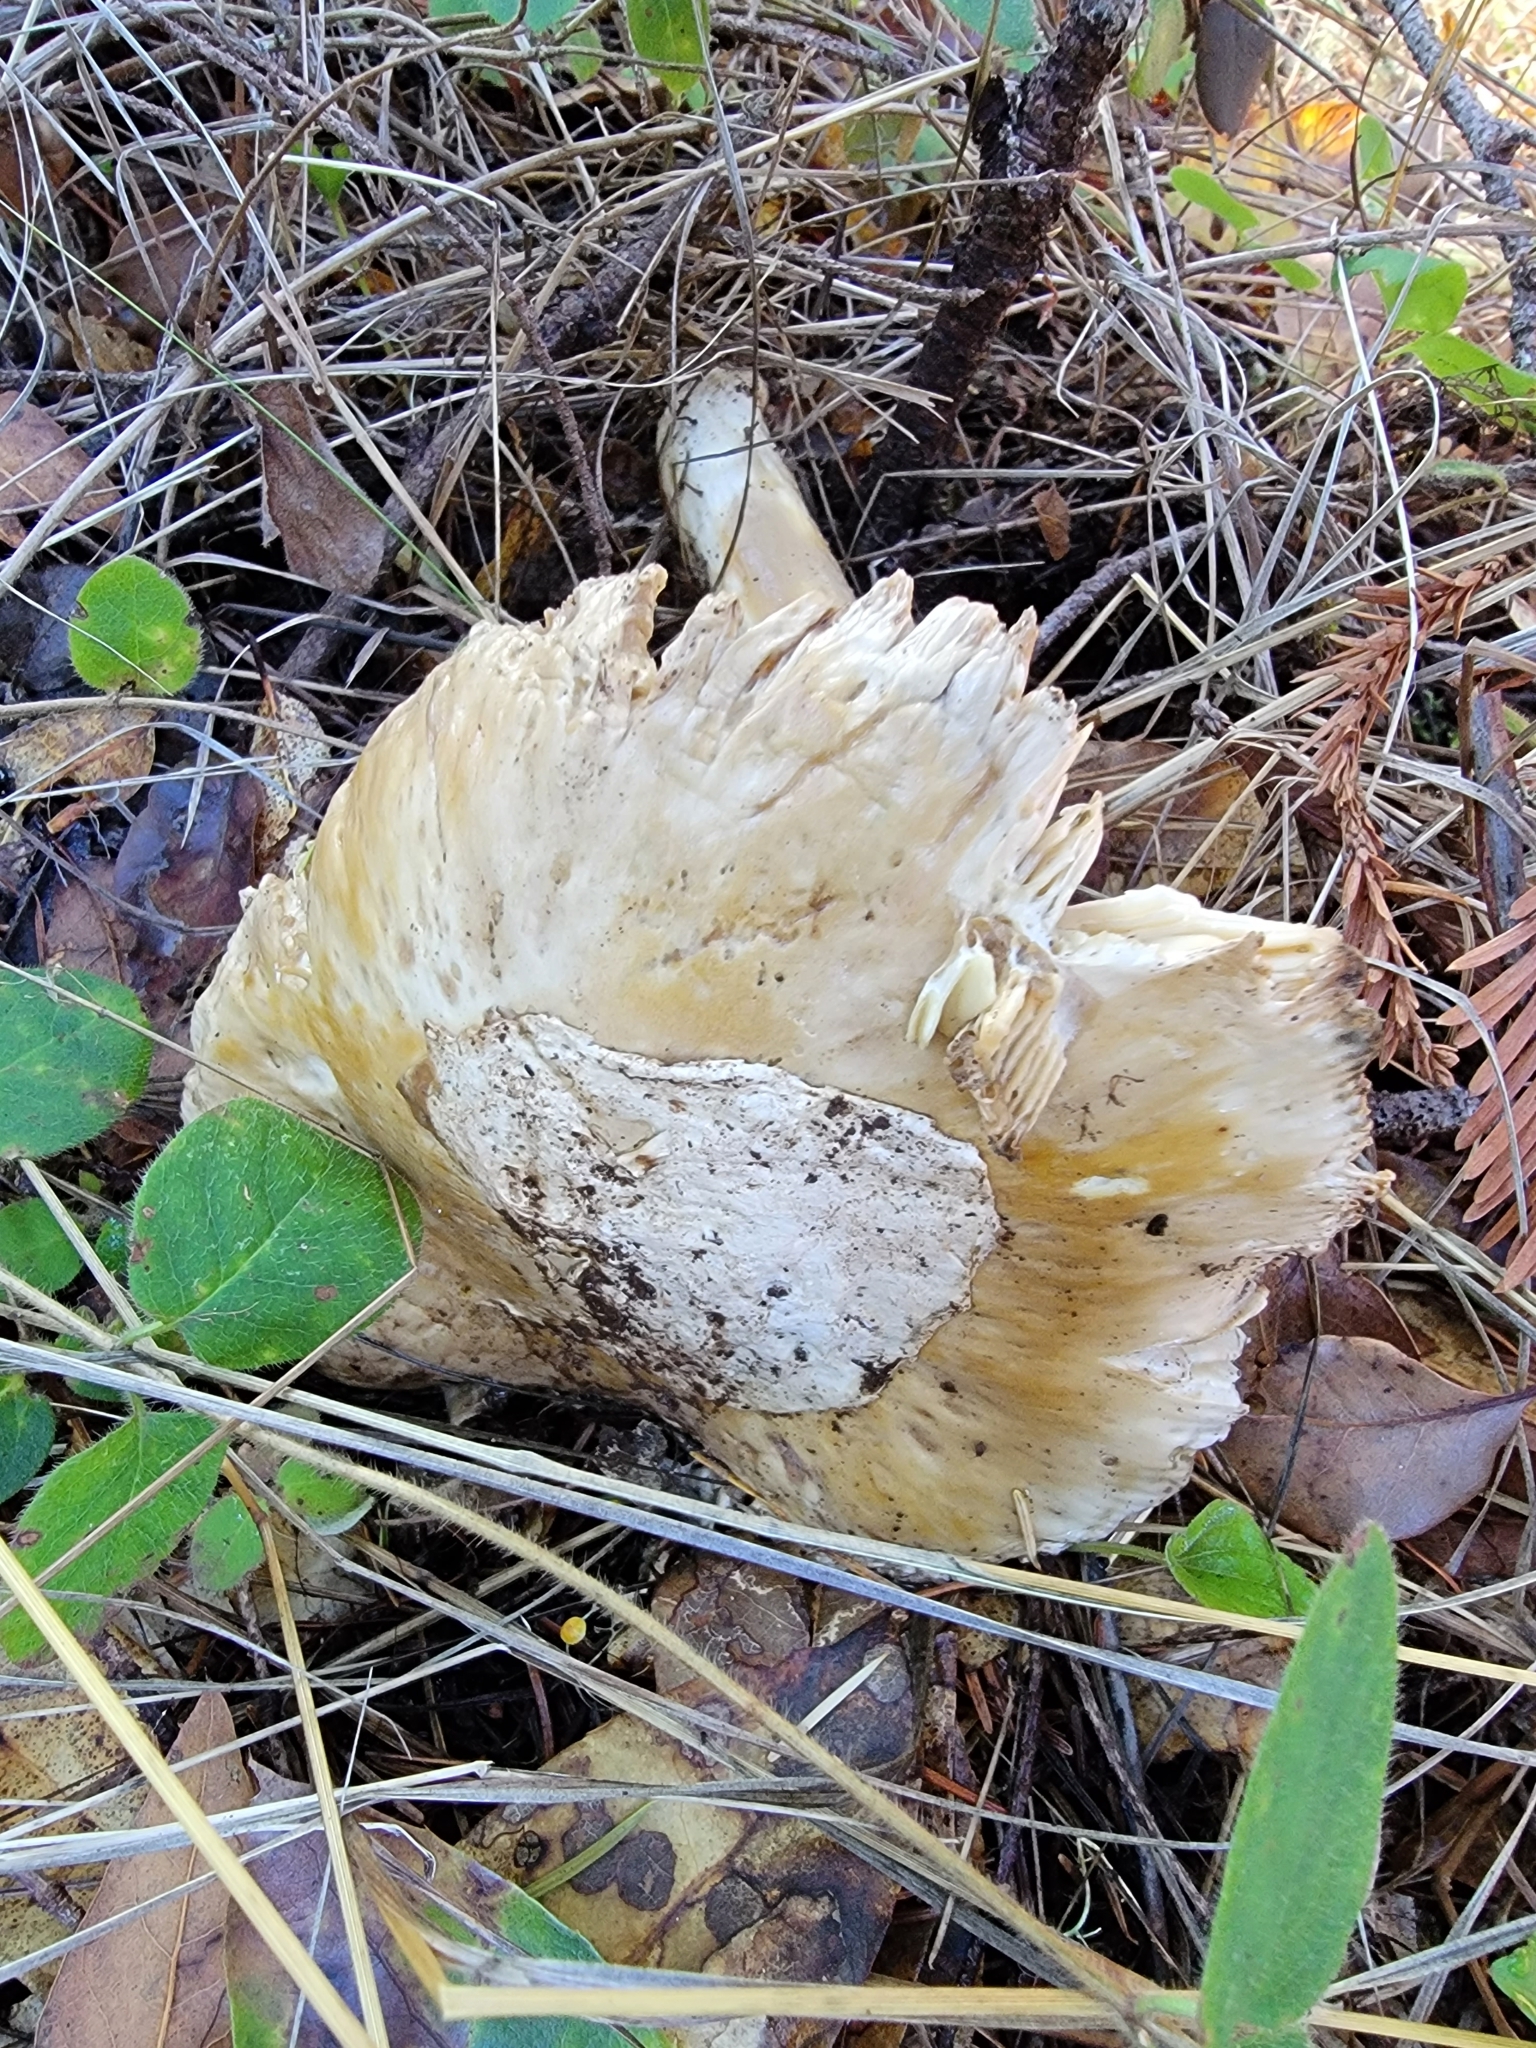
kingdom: Fungi
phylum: Basidiomycota
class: Agaricomycetes
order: Agaricales
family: Amanitaceae
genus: Amanita
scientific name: Amanita calyptroderma
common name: Coccora
